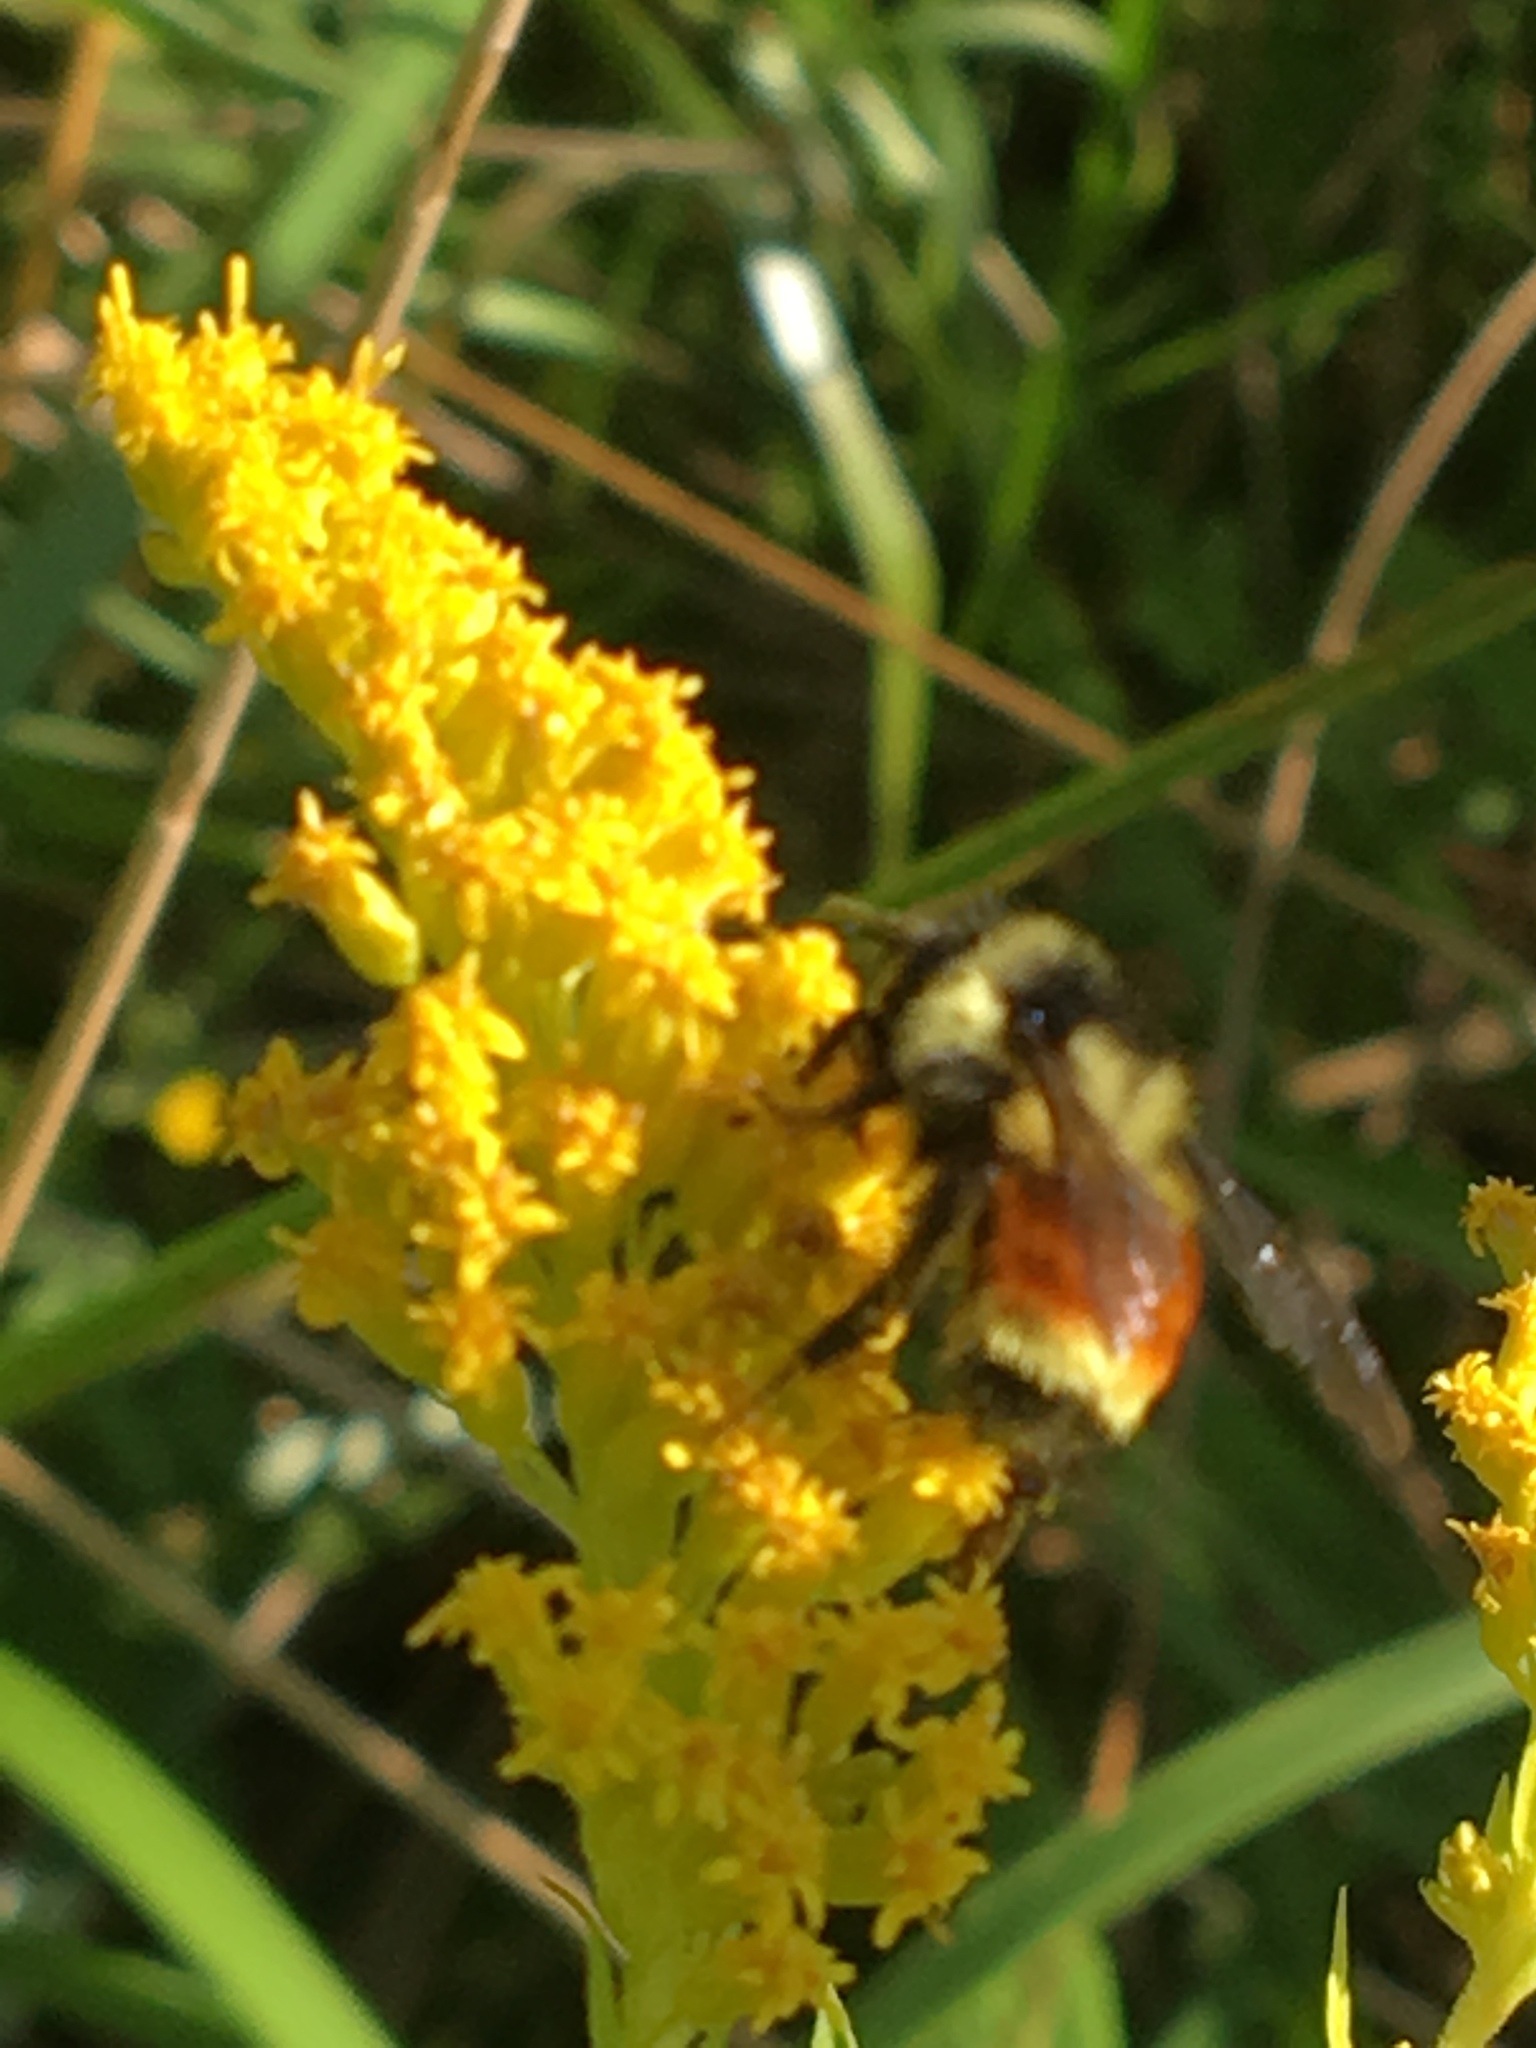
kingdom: Animalia
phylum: Arthropoda
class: Insecta
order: Hymenoptera
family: Apidae
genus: Bombus
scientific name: Bombus ternarius
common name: Tri-colored bumble bee
